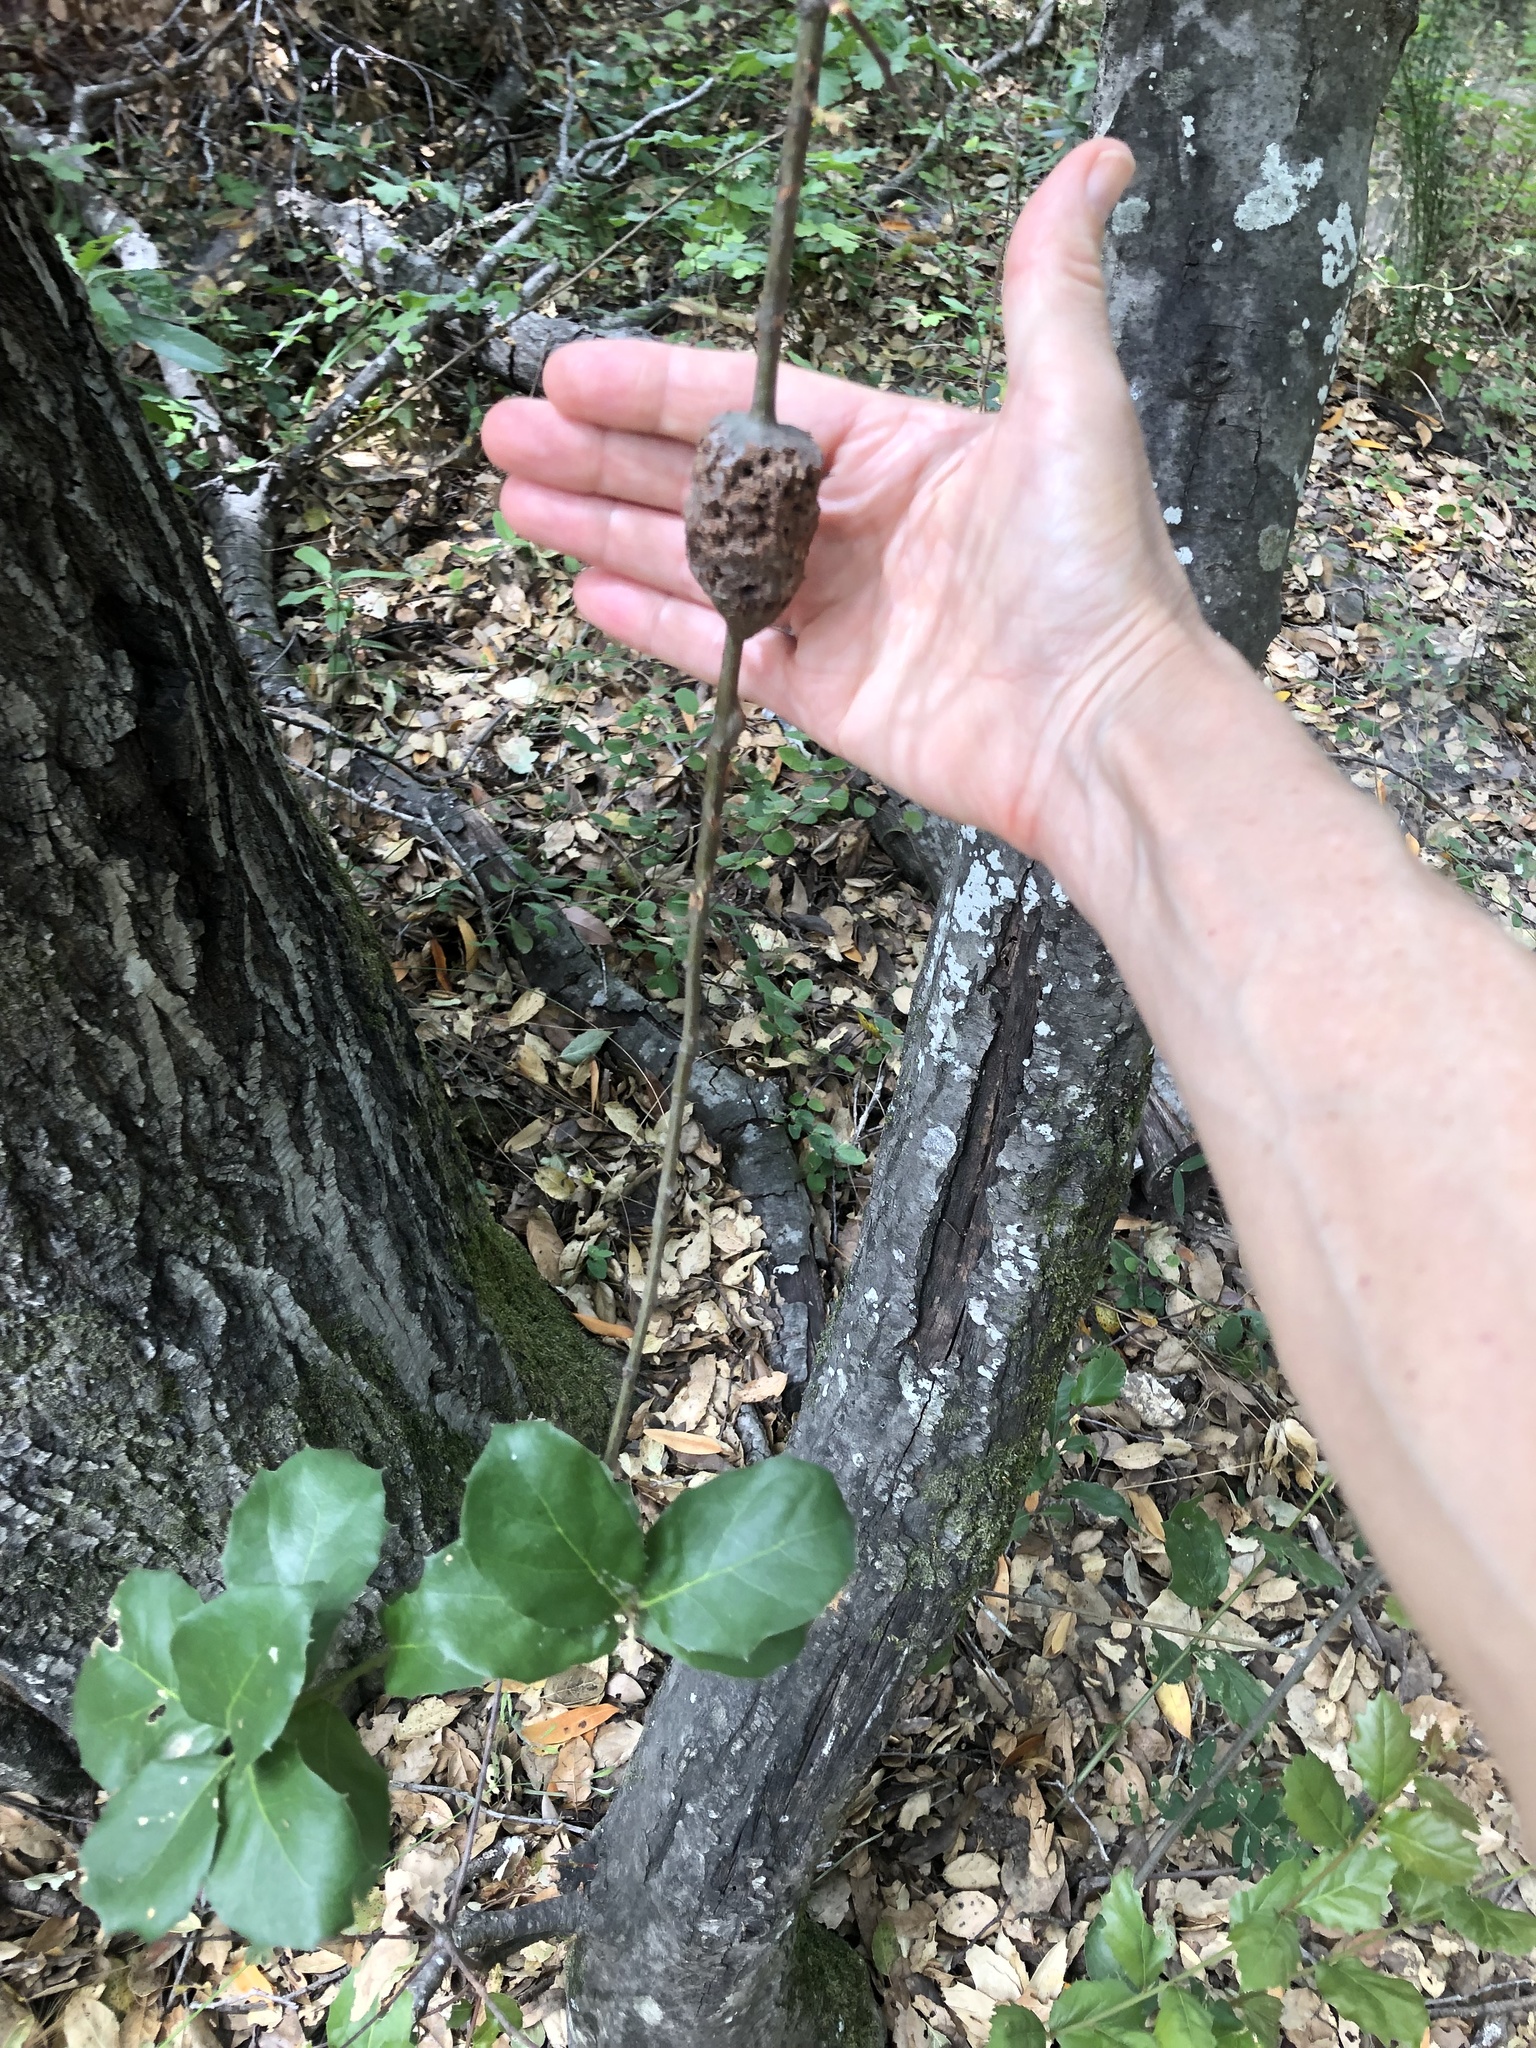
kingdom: Animalia
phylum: Arthropoda
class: Insecta
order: Hymenoptera
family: Cynipidae
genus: Callirhytis
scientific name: Callirhytis
